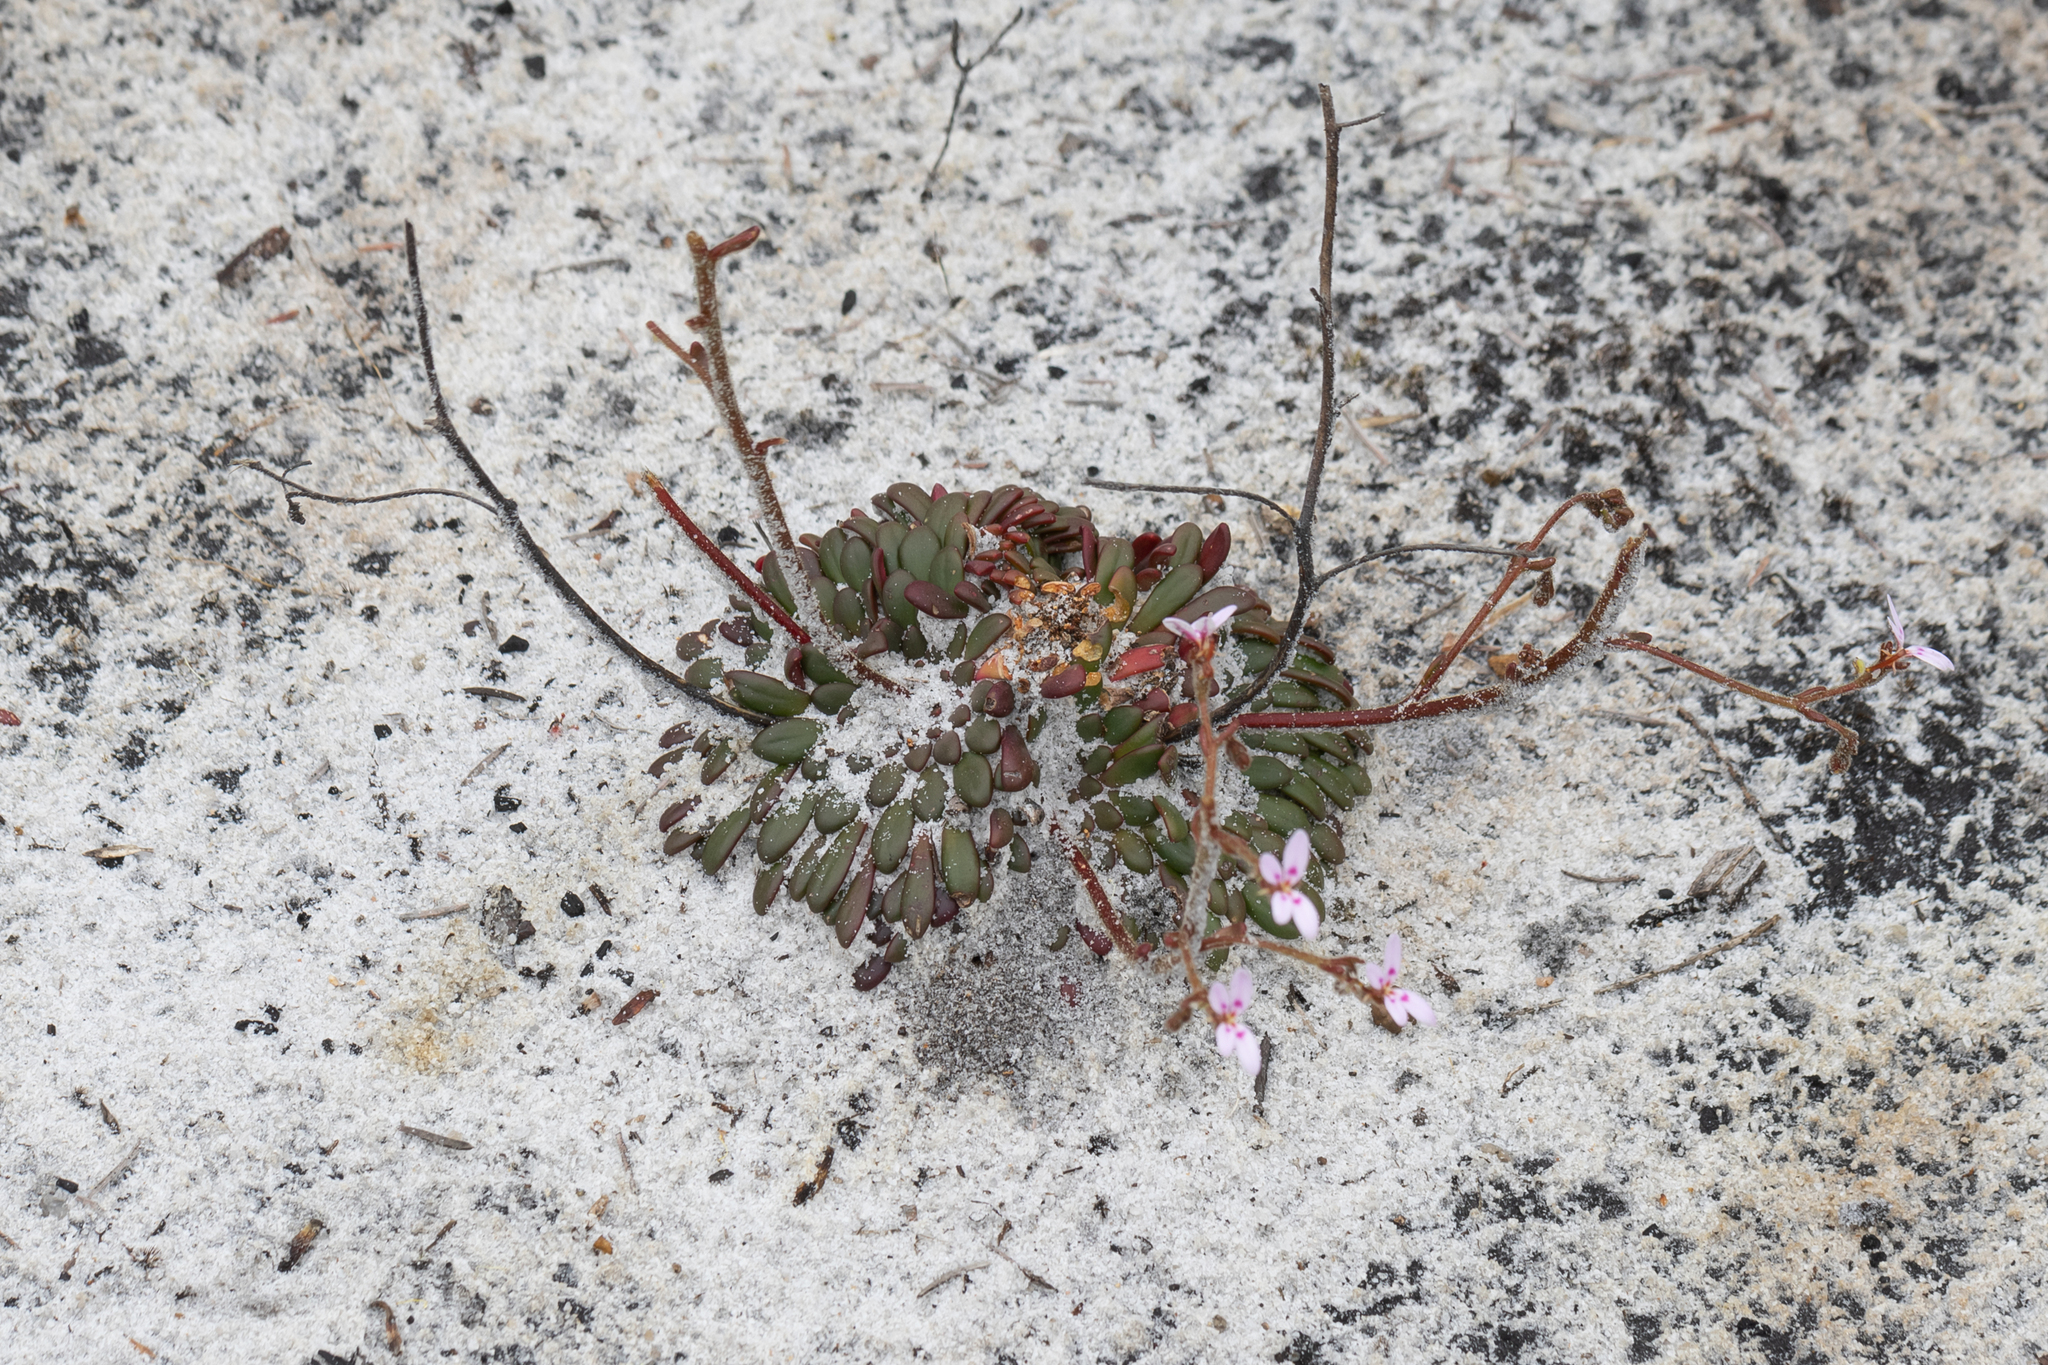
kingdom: Plantae
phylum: Tracheophyta
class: Magnoliopsida
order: Asterales
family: Stylidiaceae
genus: Stylidium
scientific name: Stylidium assimile
